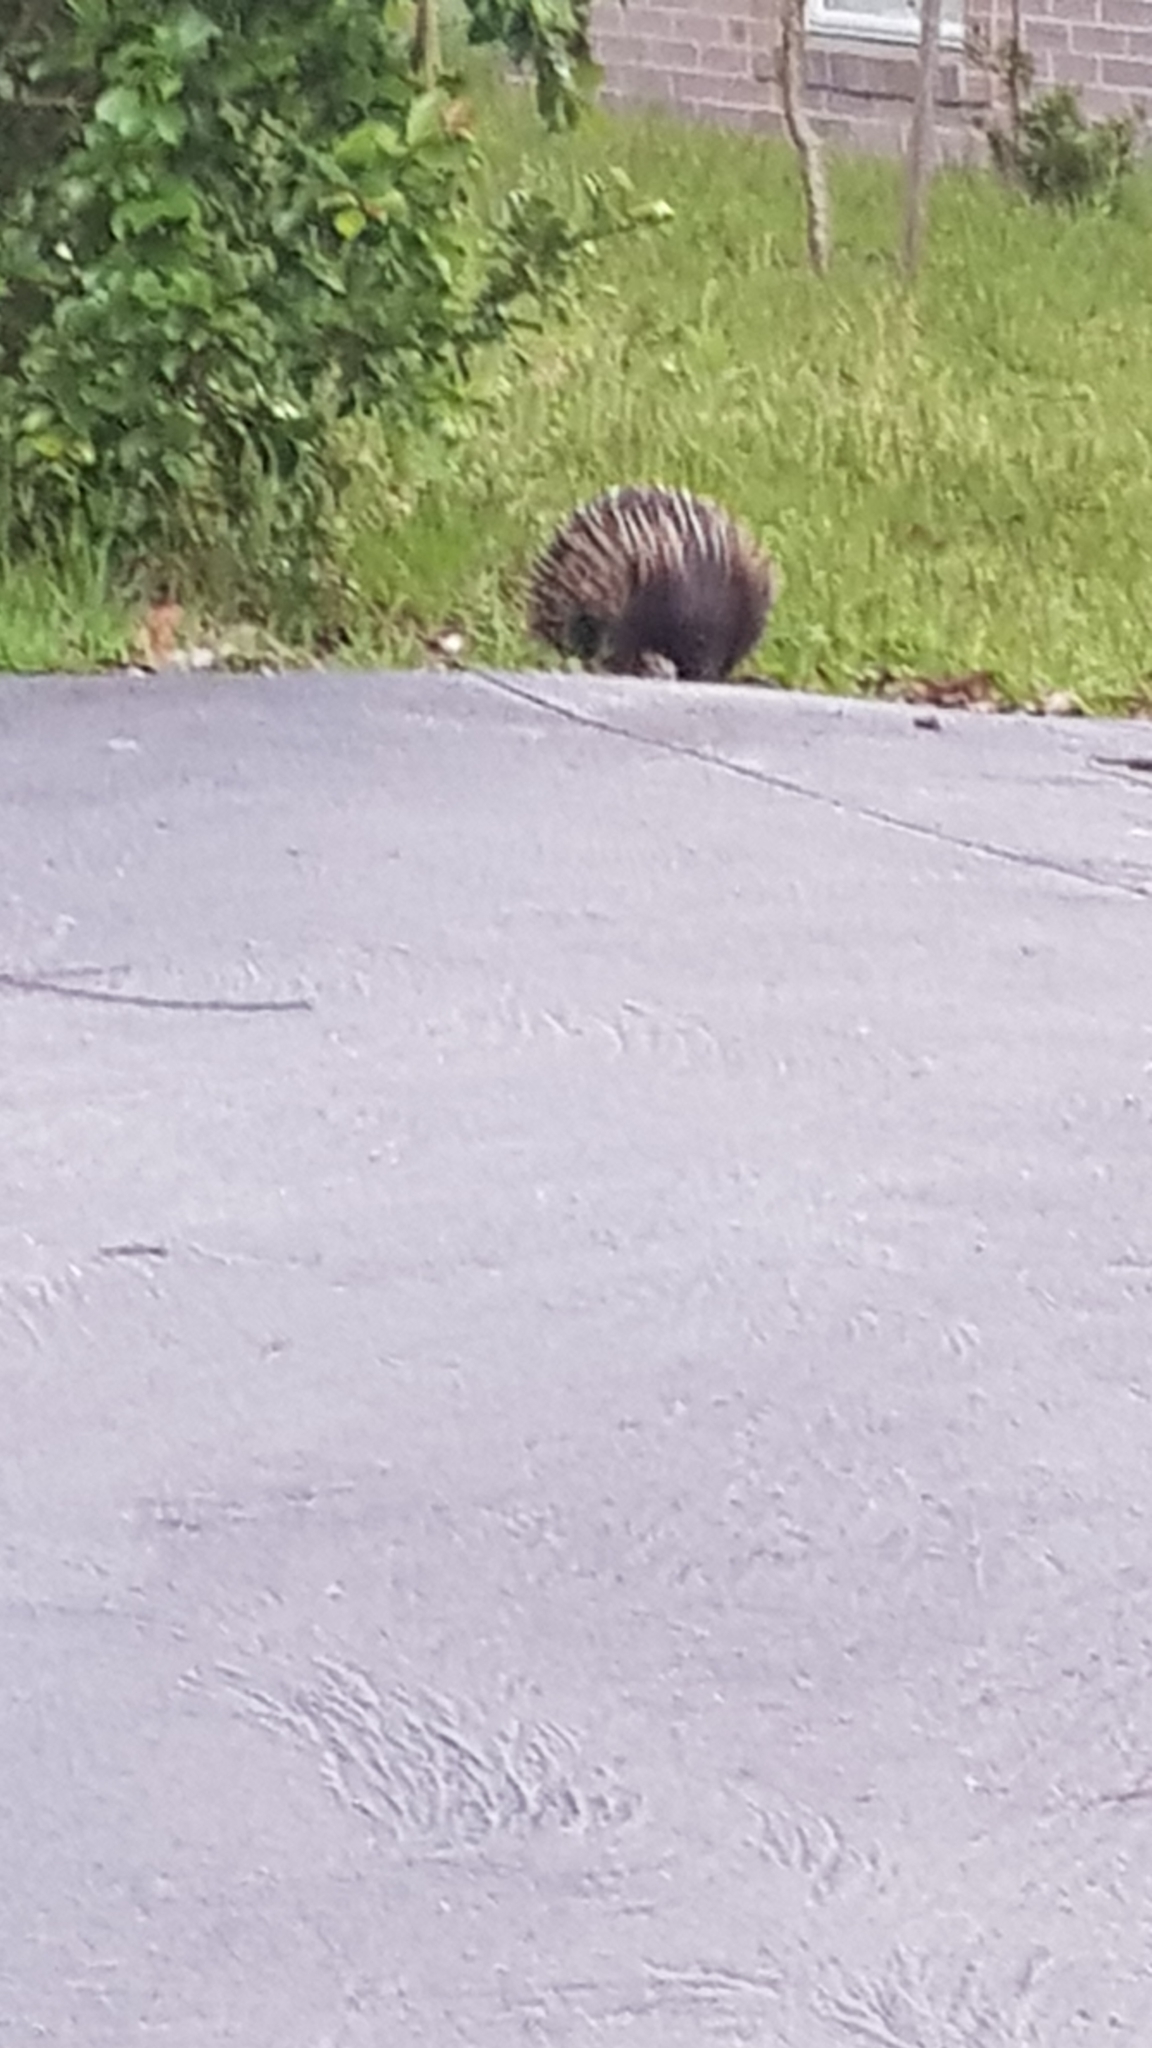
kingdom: Animalia
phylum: Chordata
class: Mammalia
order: Monotremata
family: Tachyglossidae
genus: Tachyglossus
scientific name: Tachyglossus aculeatus
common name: Short-beaked echidna
